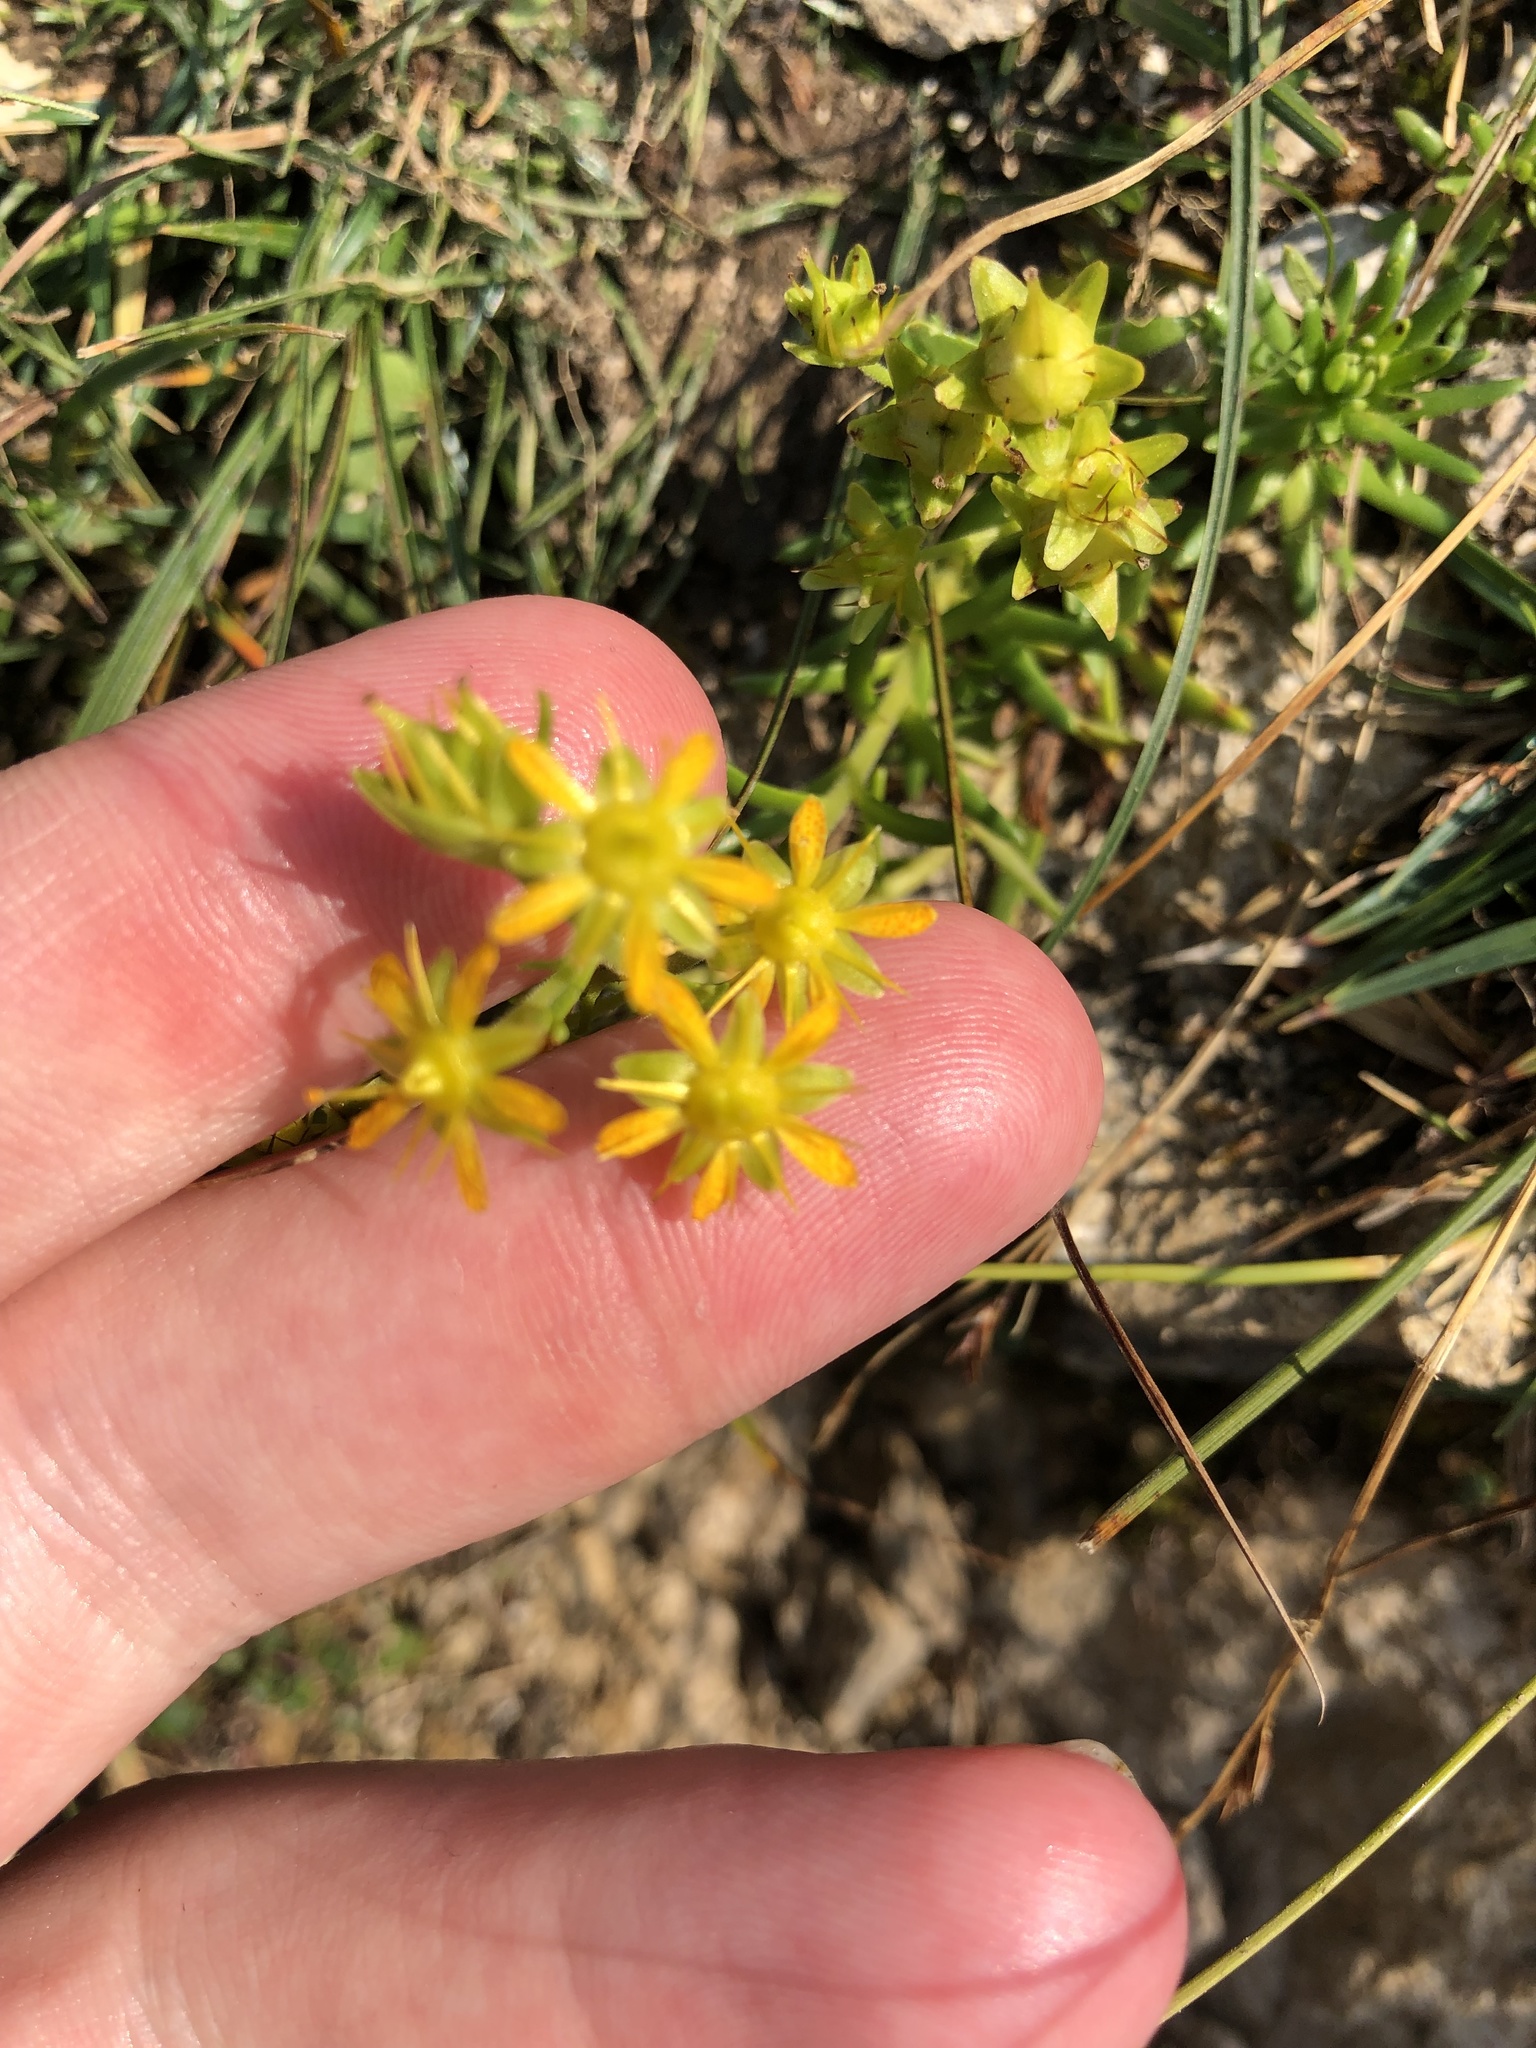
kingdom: Plantae
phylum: Tracheophyta
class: Magnoliopsida
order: Saxifragales
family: Saxifragaceae
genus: Saxifraga
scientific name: Saxifraga aizoides
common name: Yellow mountain saxifrage
